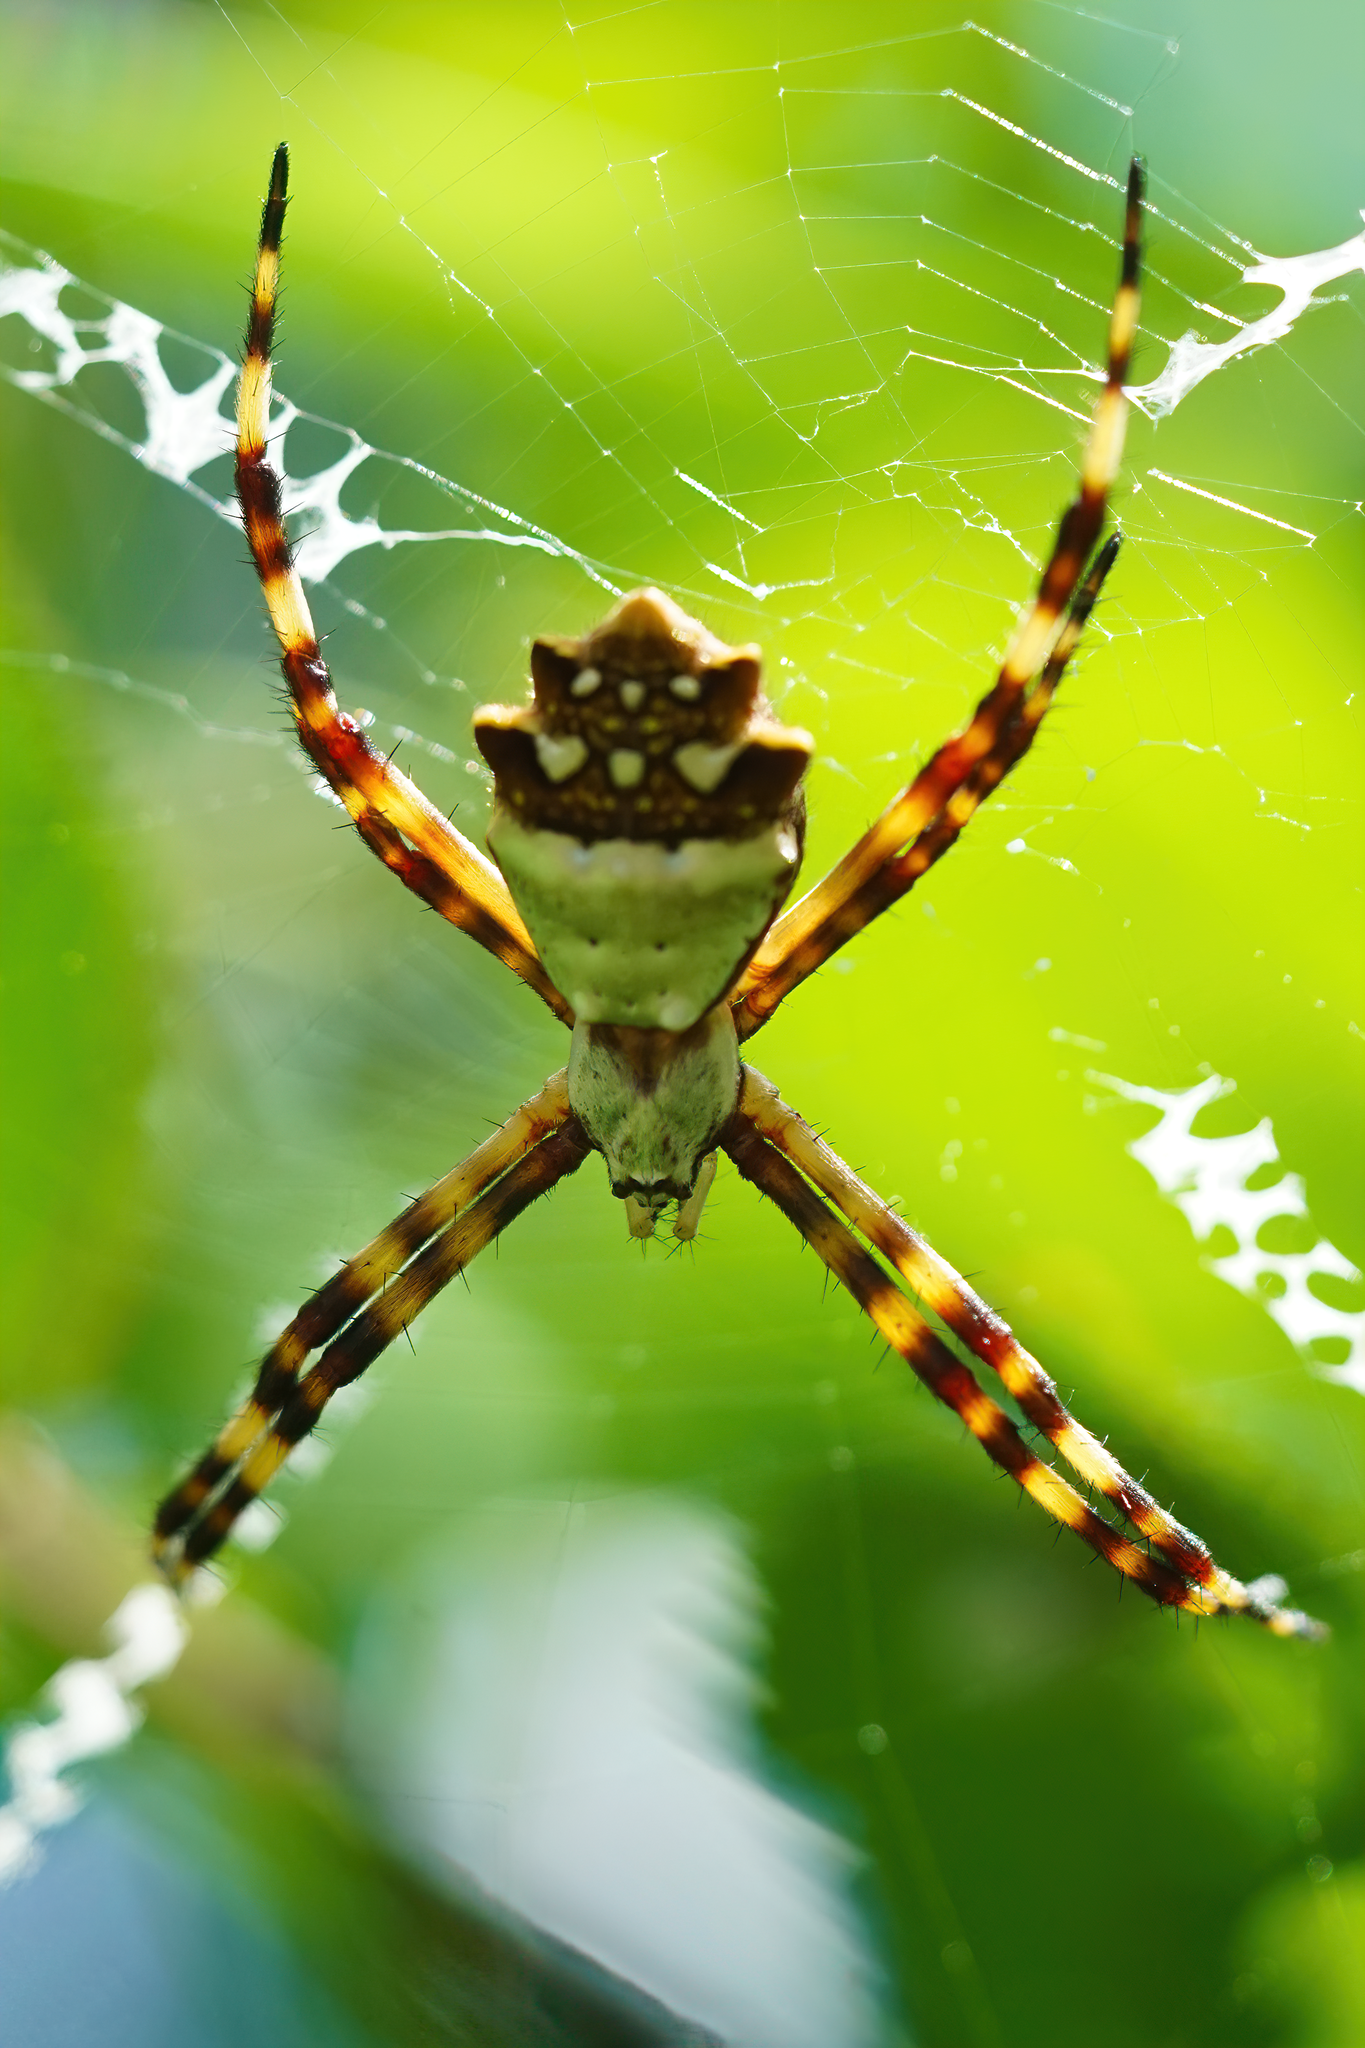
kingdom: Animalia
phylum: Arthropoda
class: Arachnida
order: Araneae
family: Araneidae
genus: Argiope
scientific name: Argiope argentata
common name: Orb weavers
